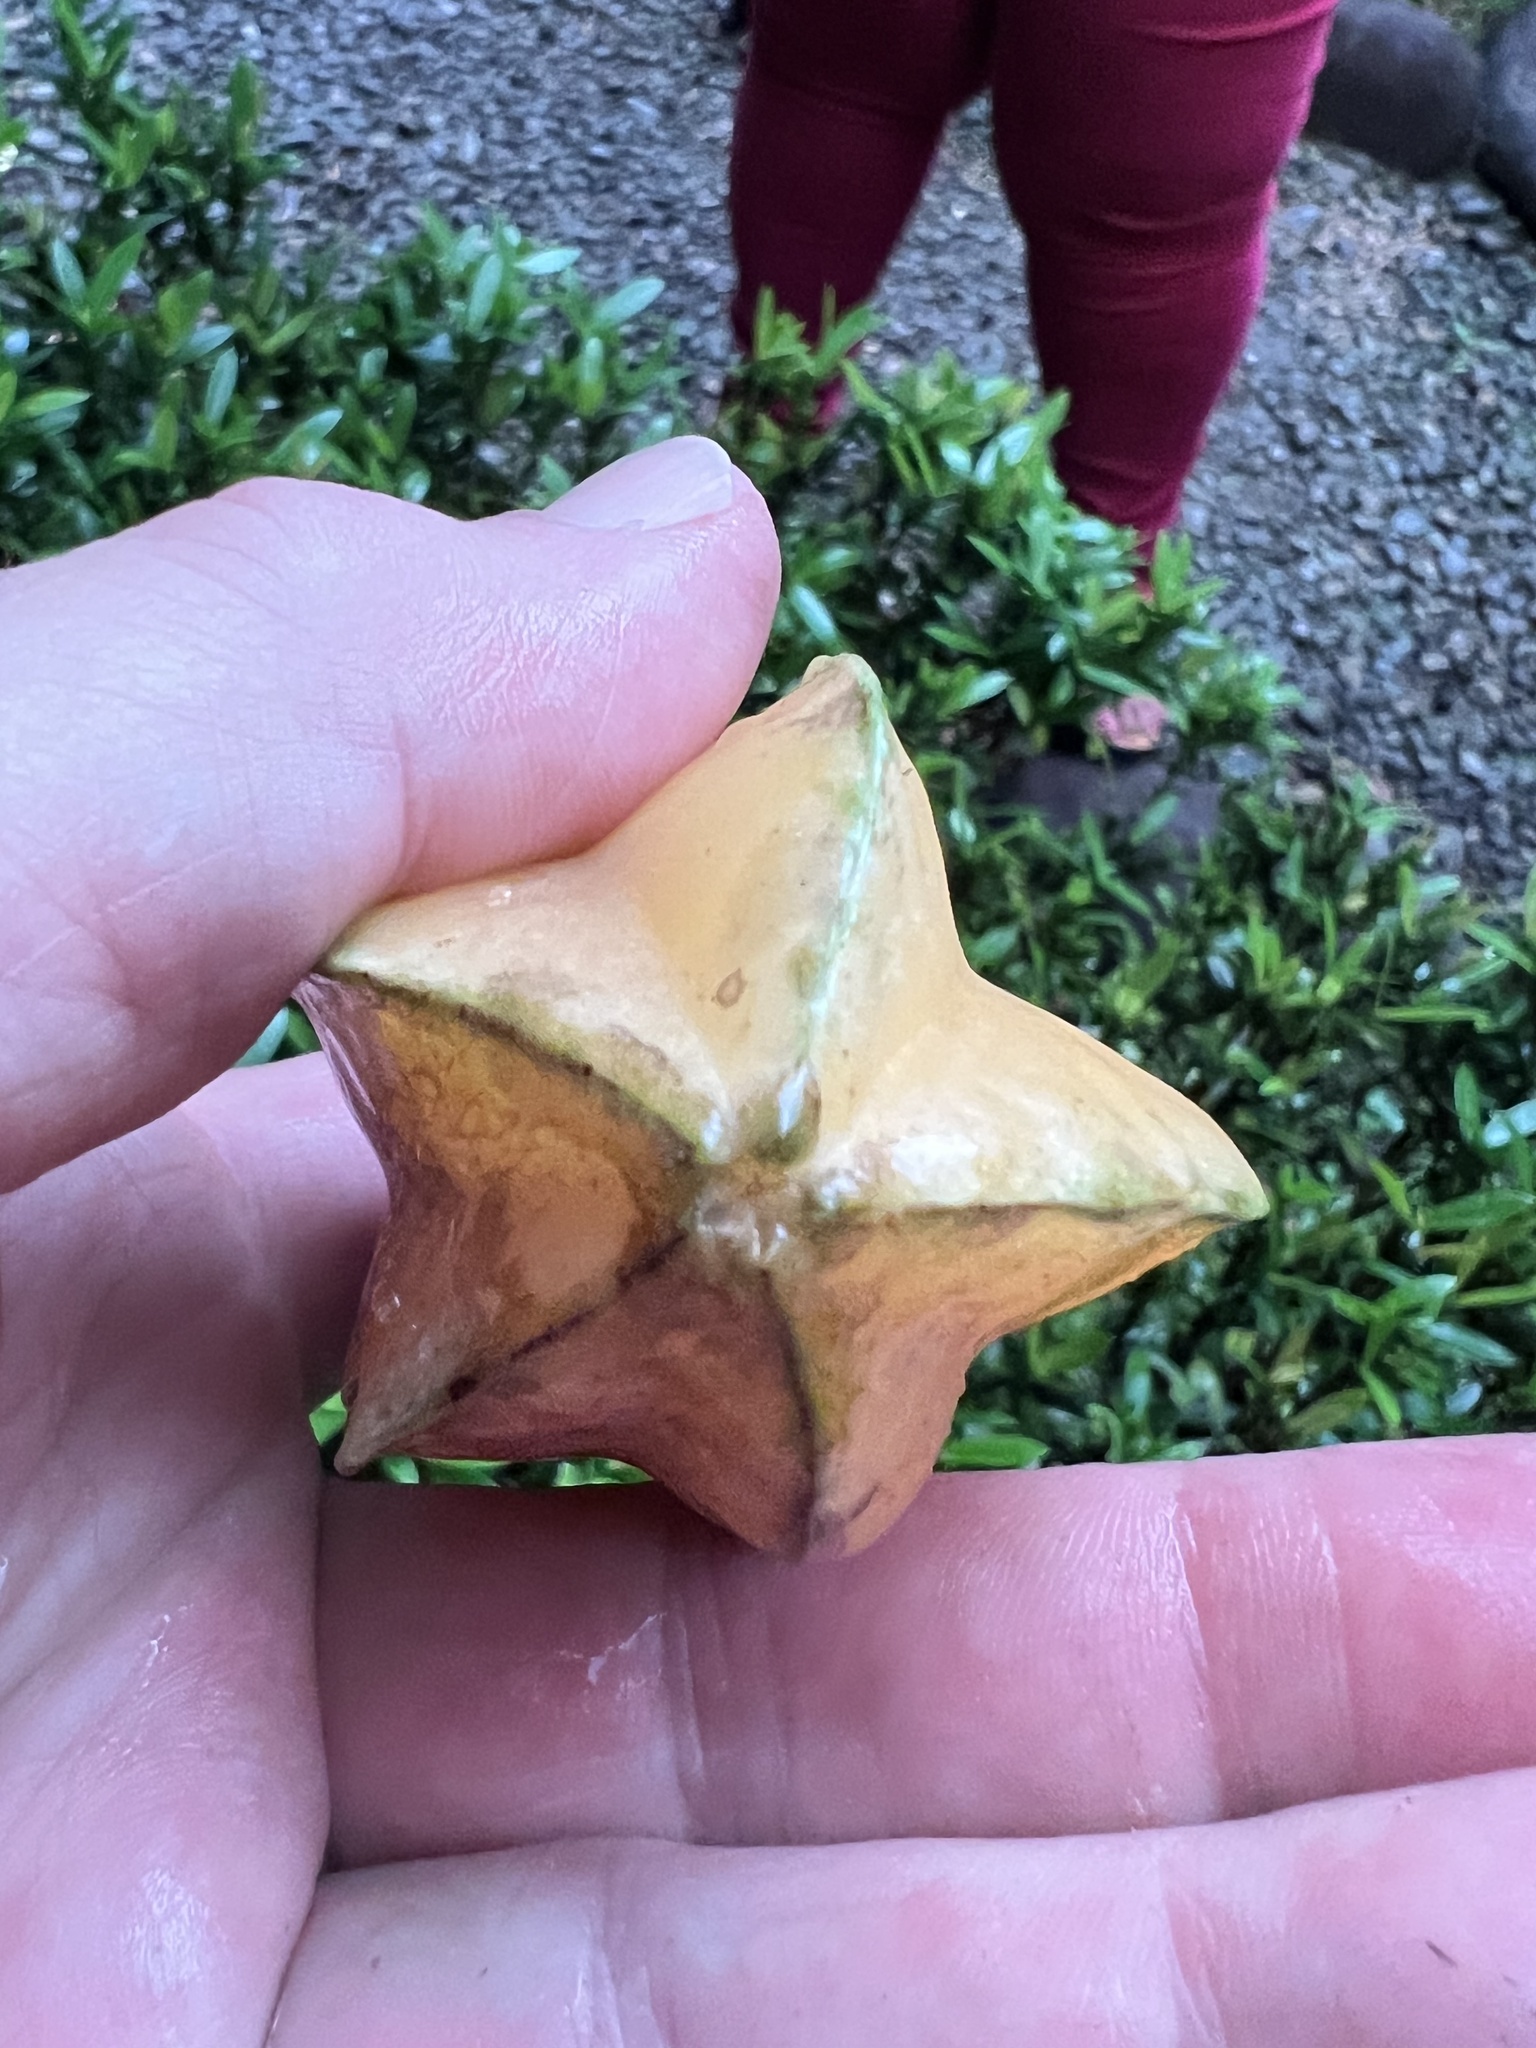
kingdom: Plantae
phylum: Tracheophyta
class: Magnoliopsida
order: Oxalidales
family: Oxalidaceae
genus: Averrhoa
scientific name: Averrhoa carambola
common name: Blimbing
